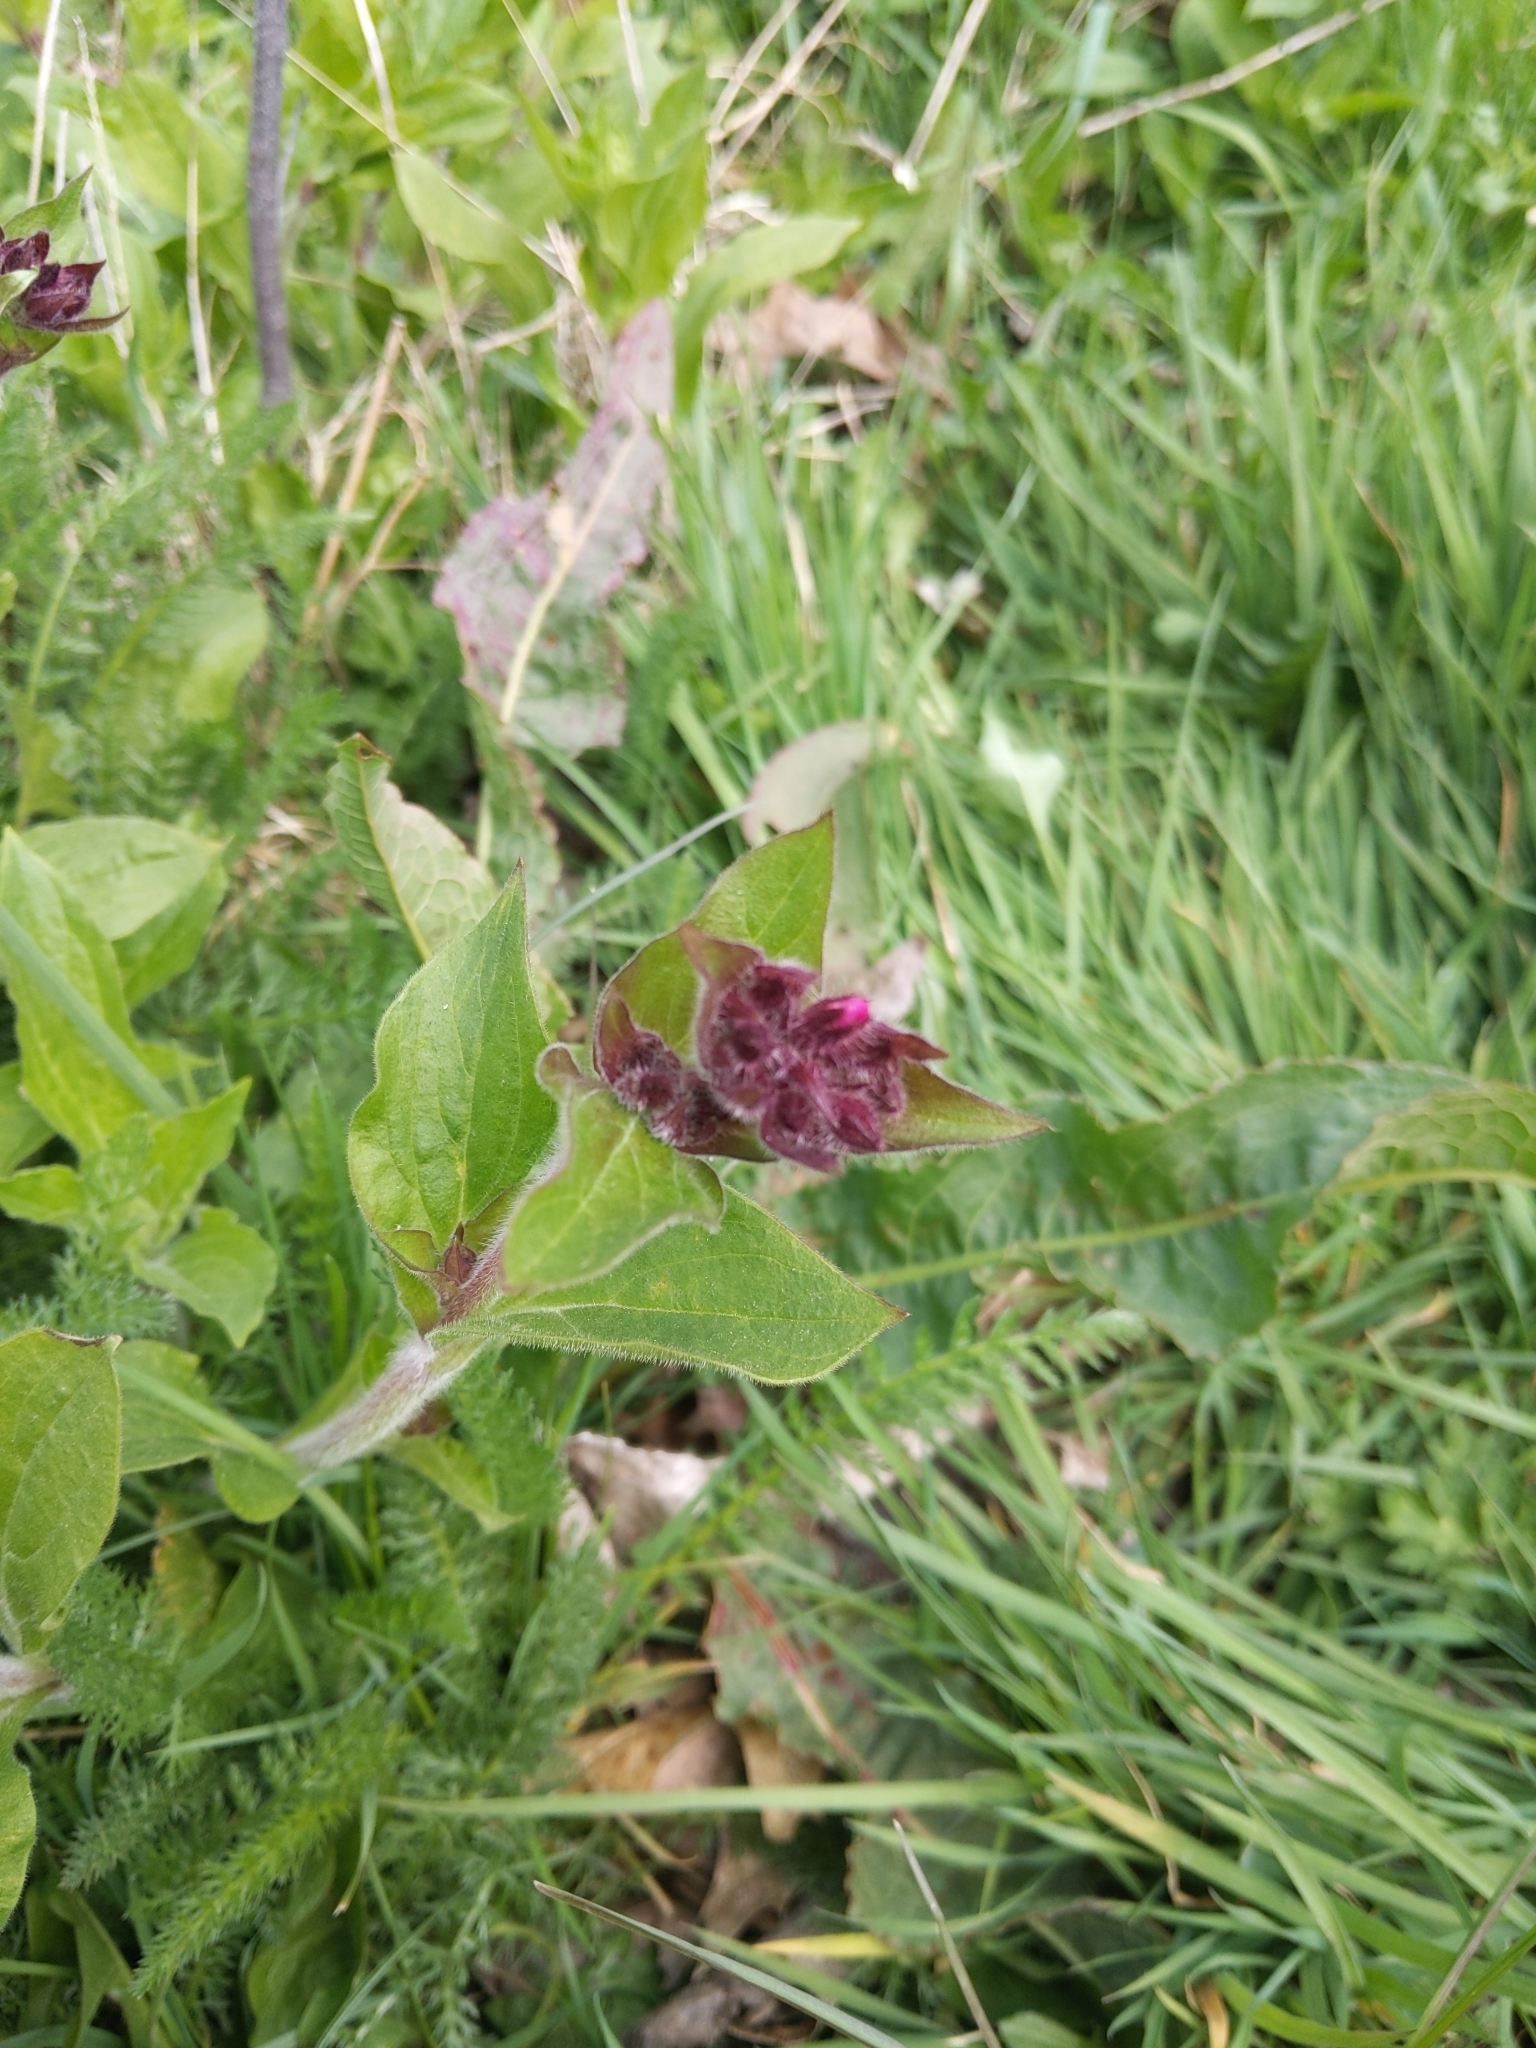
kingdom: Plantae
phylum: Tracheophyta
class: Magnoliopsida
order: Caryophyllales
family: Caryophyllaceae
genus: Silene
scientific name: Silene dioica
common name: Red campion
